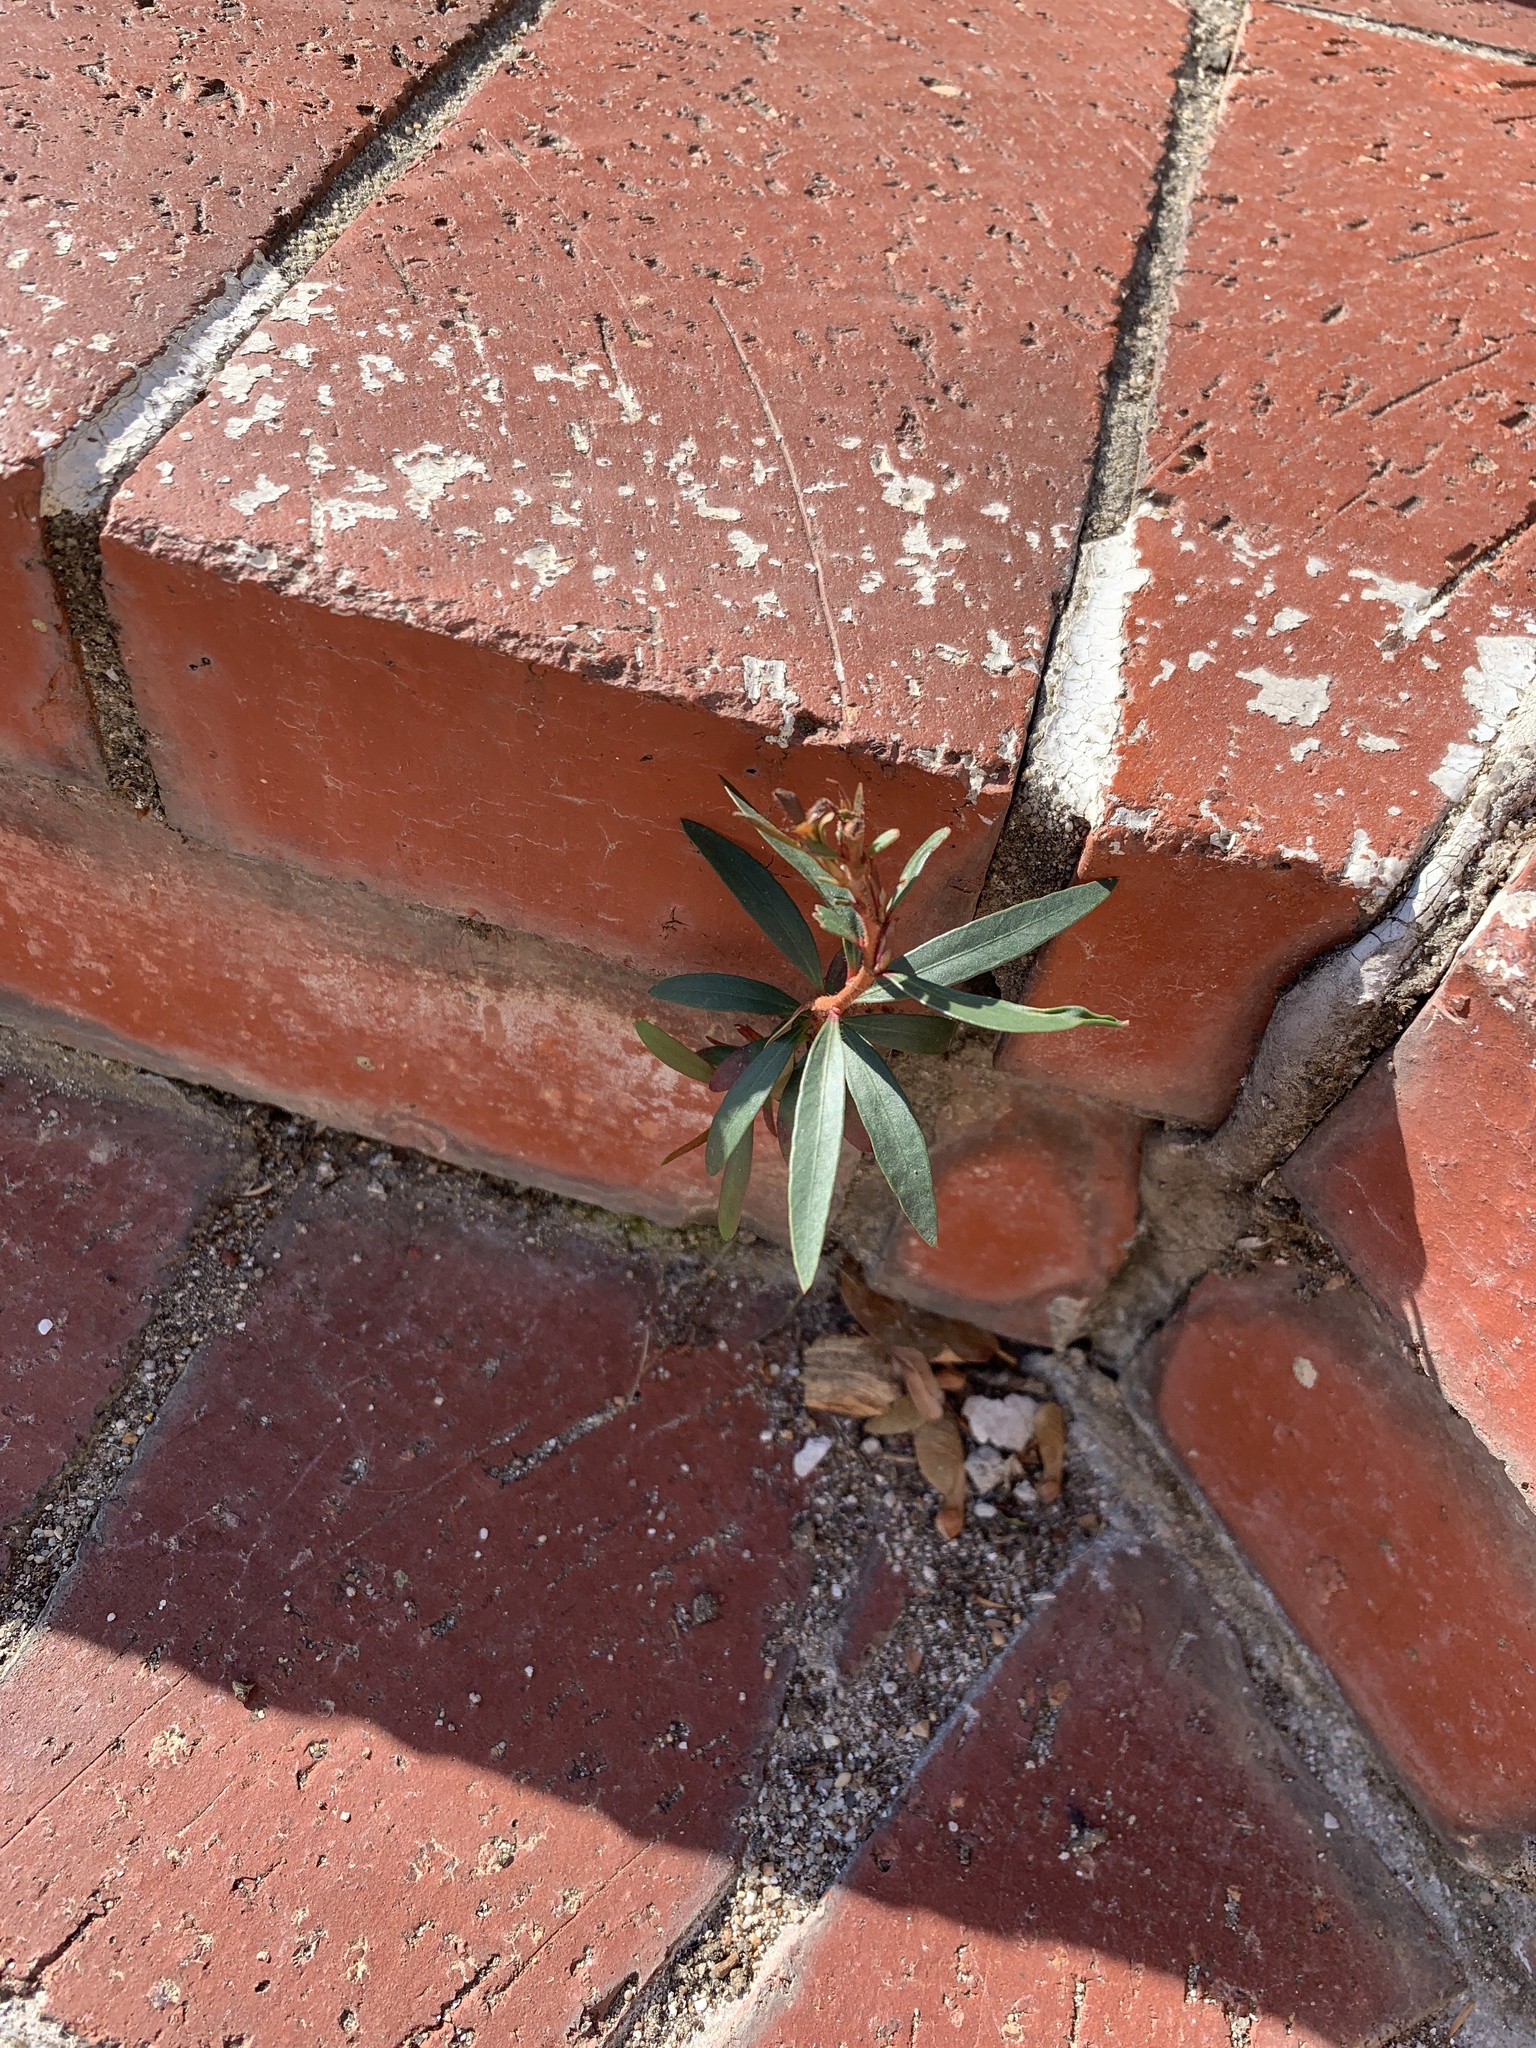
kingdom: Plantae
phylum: Tracheophyta
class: Magnoliopsida
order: Myrtales
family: Myrtaceae
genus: Callistemon
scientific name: Callistemon viminalis
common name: Drooping bottlebrush
